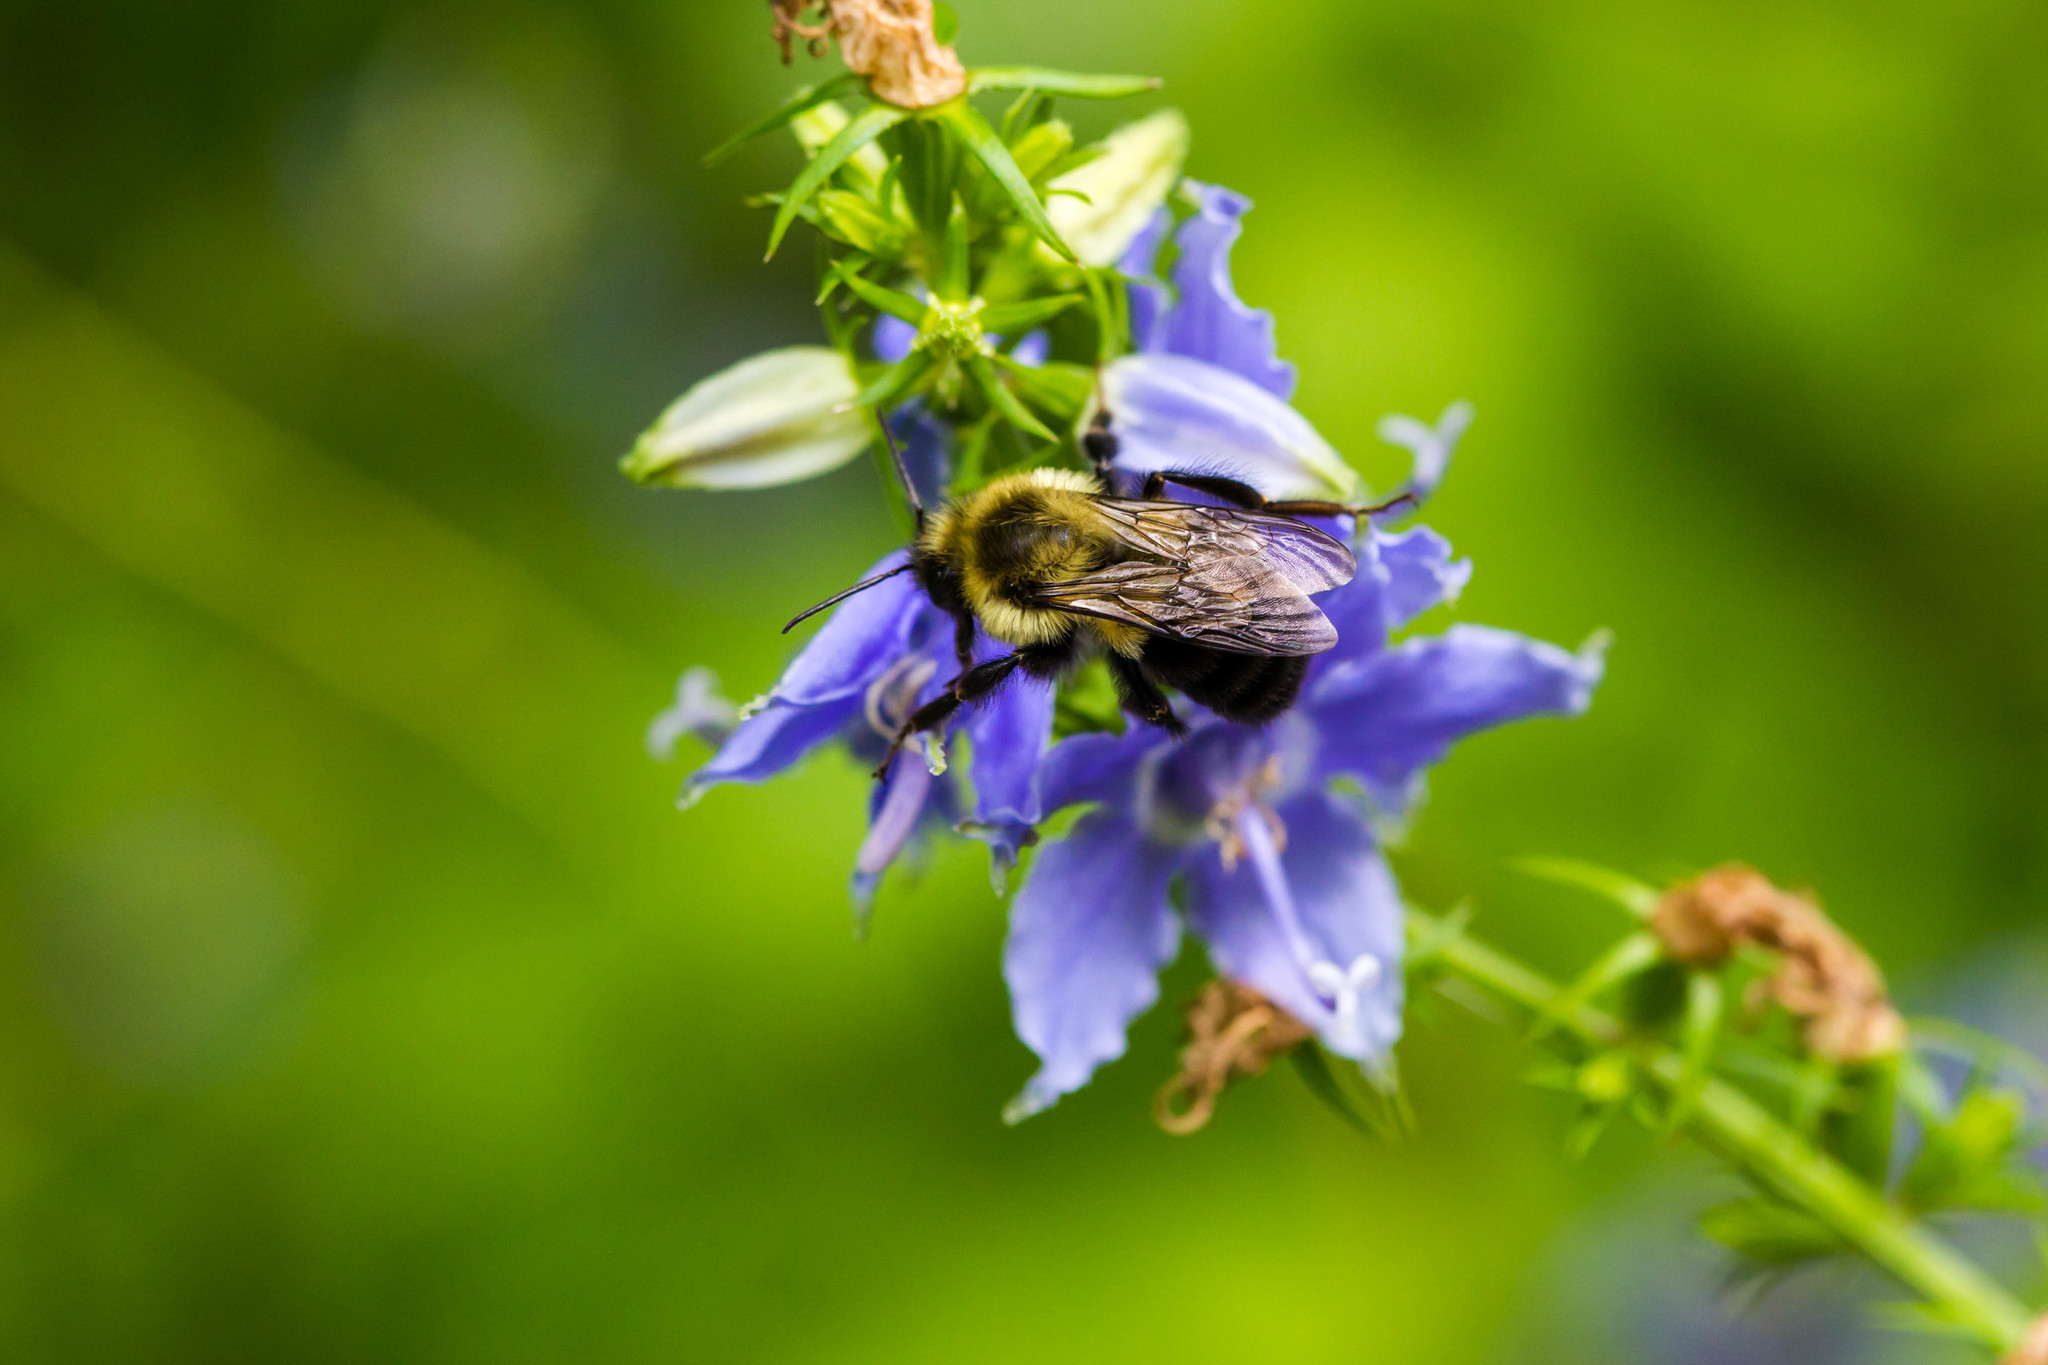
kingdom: Animalia
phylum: Arthropoda
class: Insecta
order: Hymenoptera
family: Apidae
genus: Bombus
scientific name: Bombus impatiens
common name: Common eastern bumble bee
